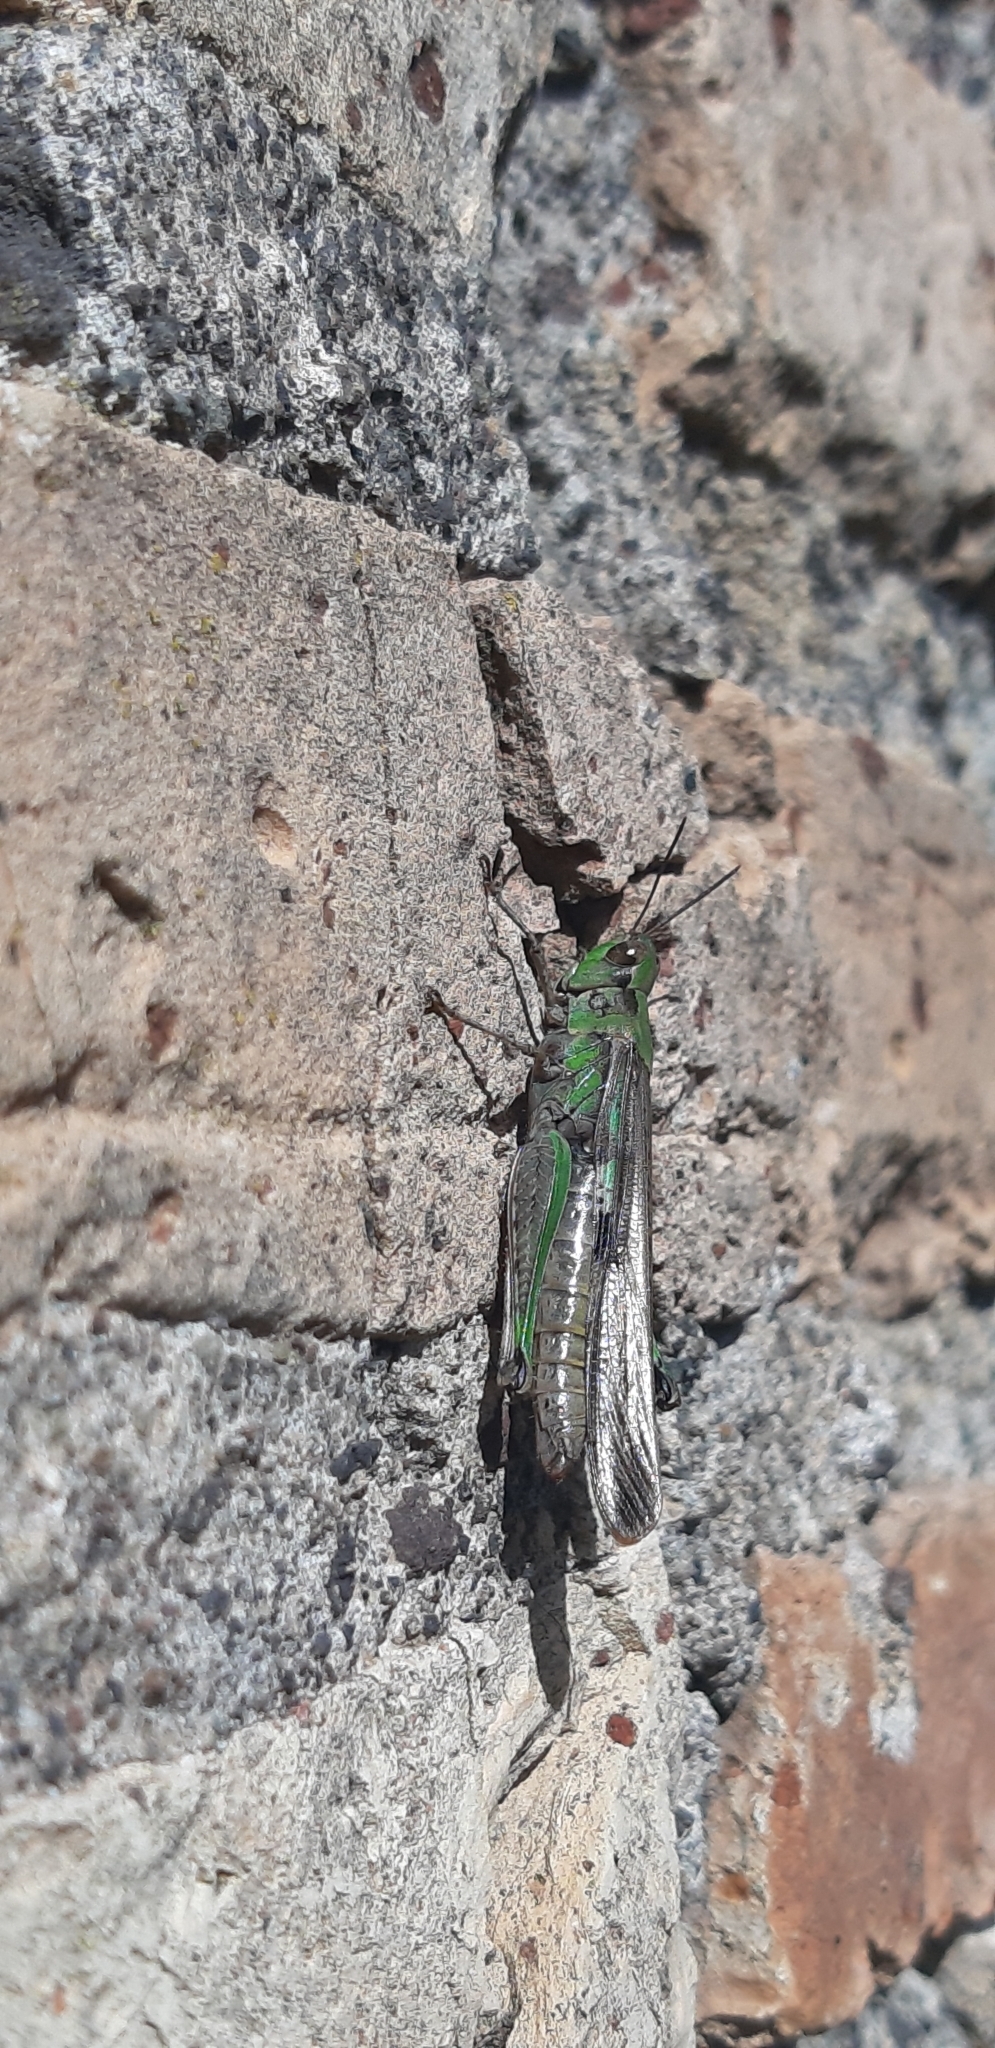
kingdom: Animalia
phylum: Arthropoda
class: Insecta
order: Orthoptera
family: Acrididae
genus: Aiolopus
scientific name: Aiolopus puissanti
